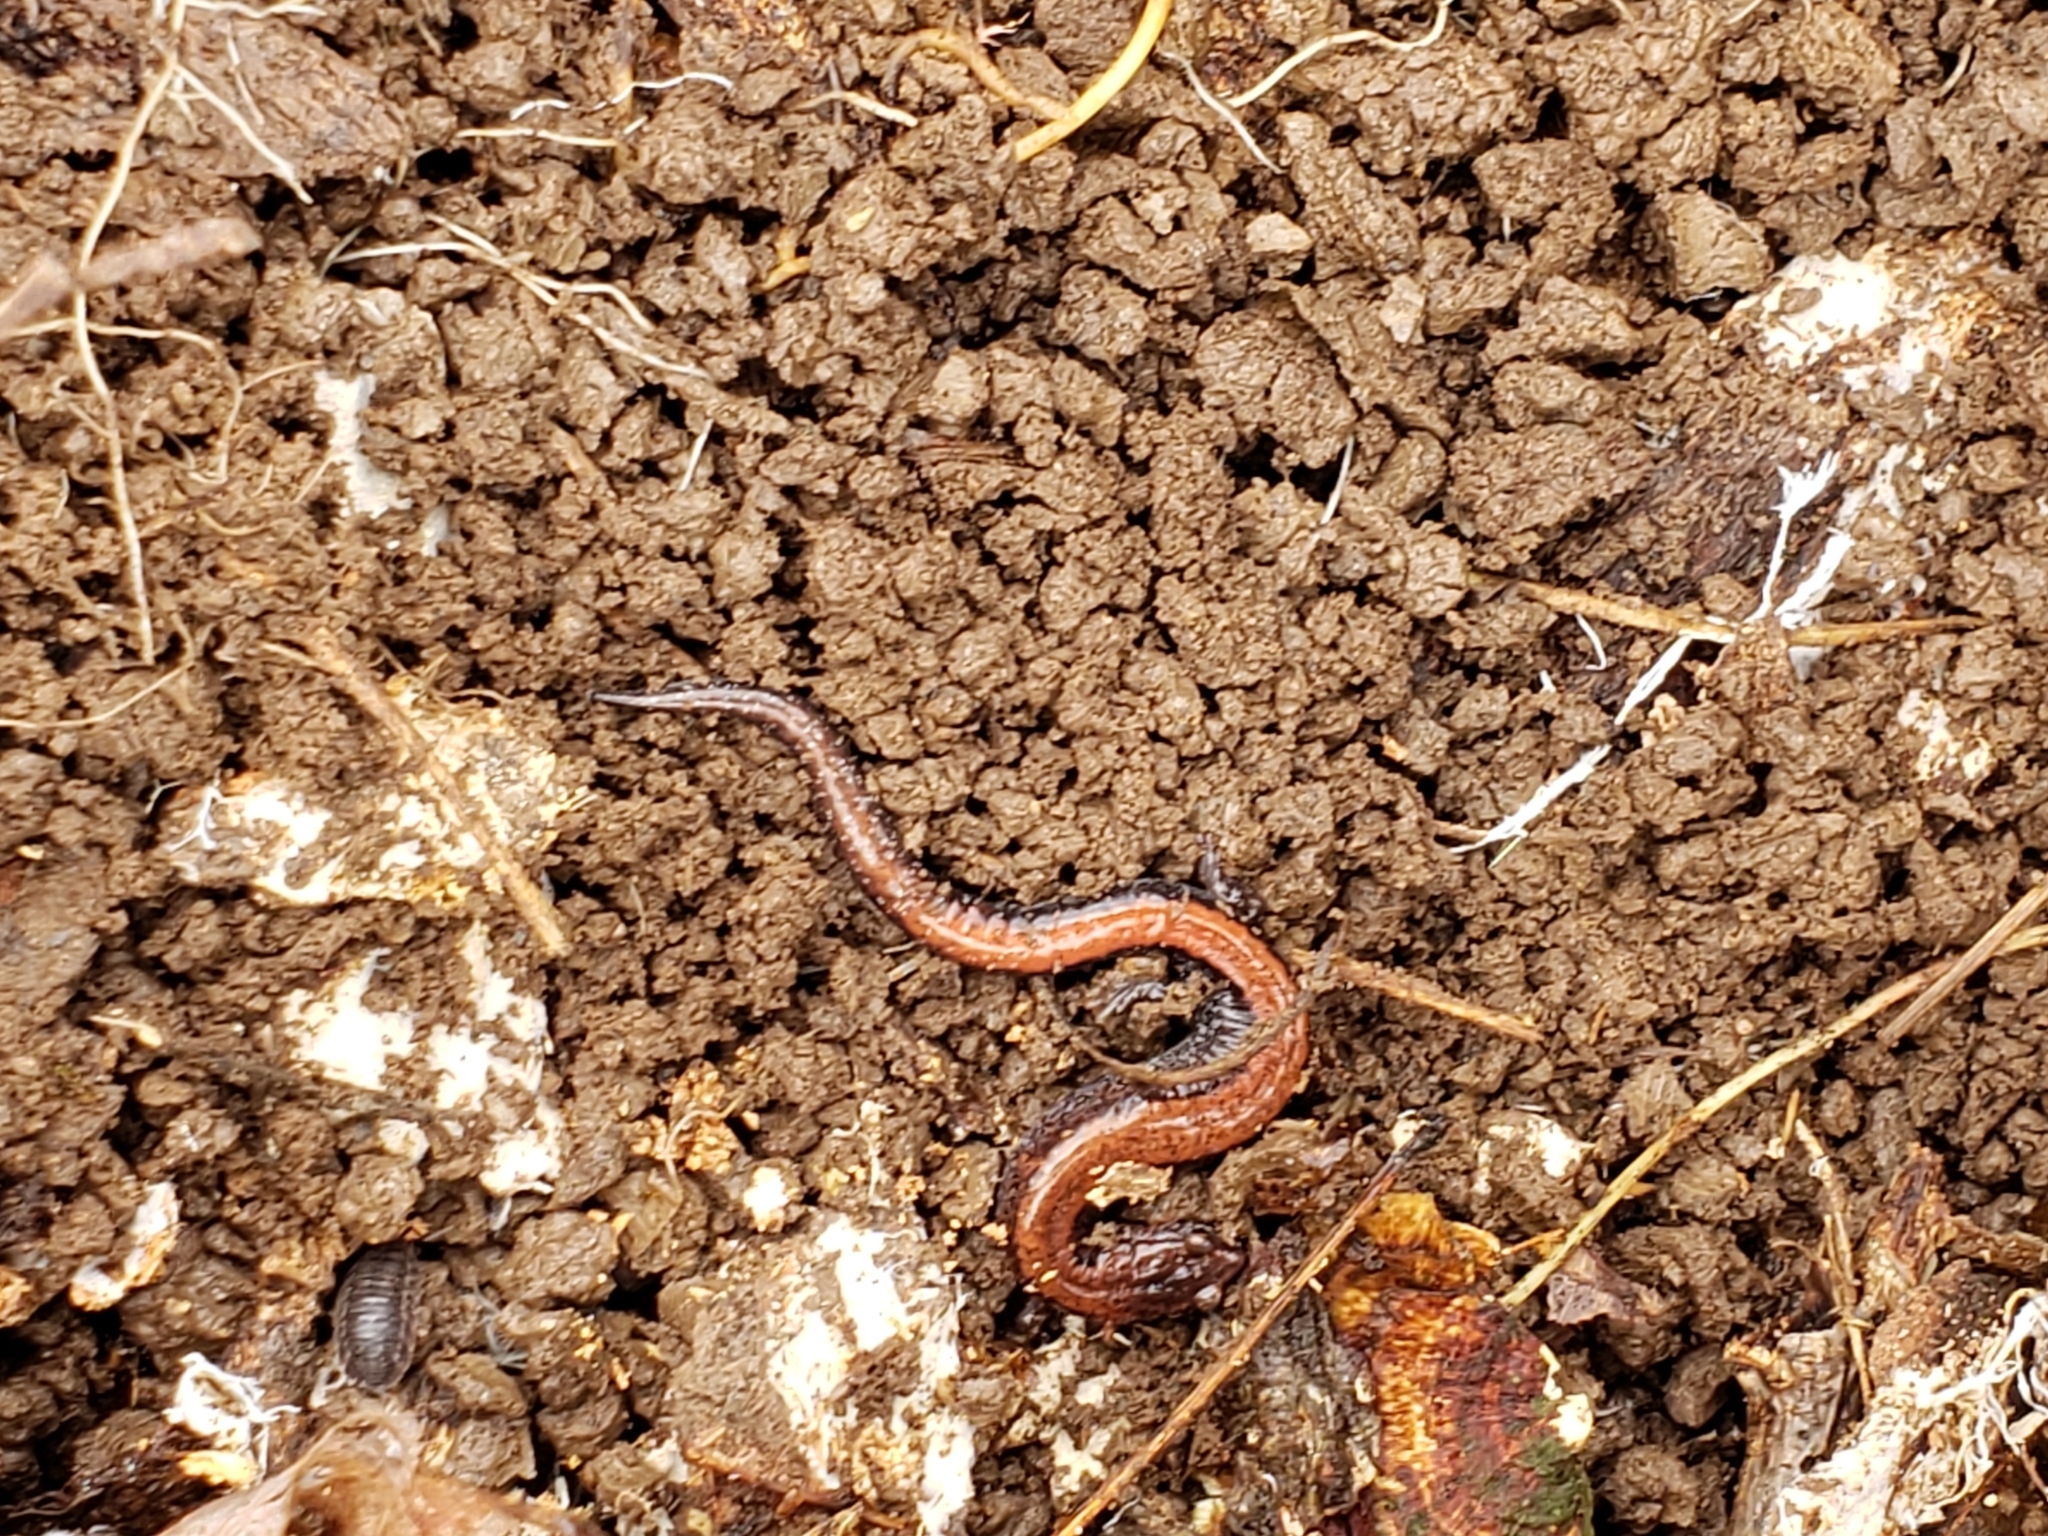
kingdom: Animalia
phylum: Chordata
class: Amphibia
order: Caudata
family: Plethodontidae
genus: Plethodon
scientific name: Plethodon cinereus
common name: Redback salamander
